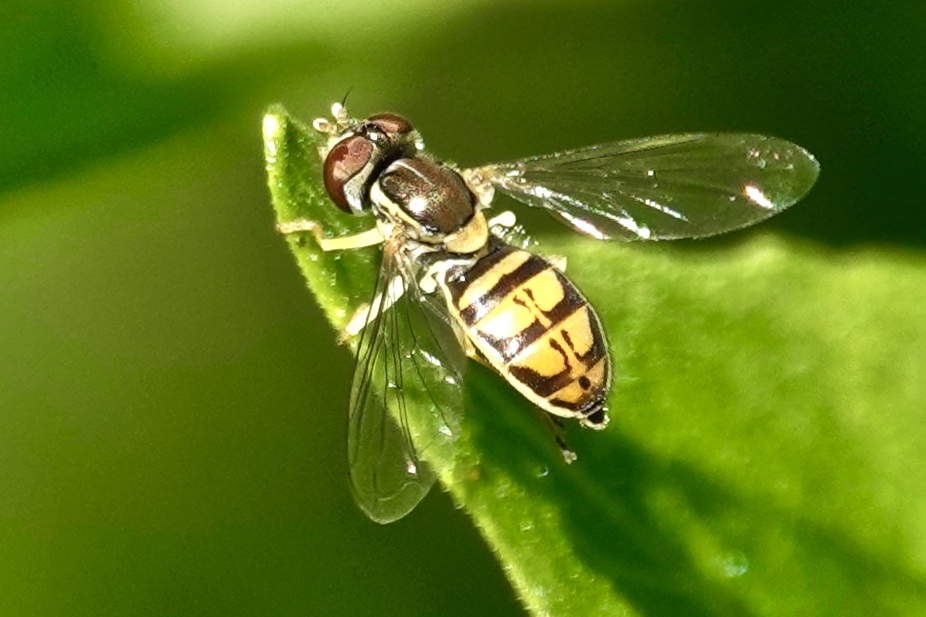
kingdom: Animalia
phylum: Arthropoda
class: Insecta
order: Diptera
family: Syrphidae
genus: Toxomerus
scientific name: Toxomerus marginatus
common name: Syrphid fly
